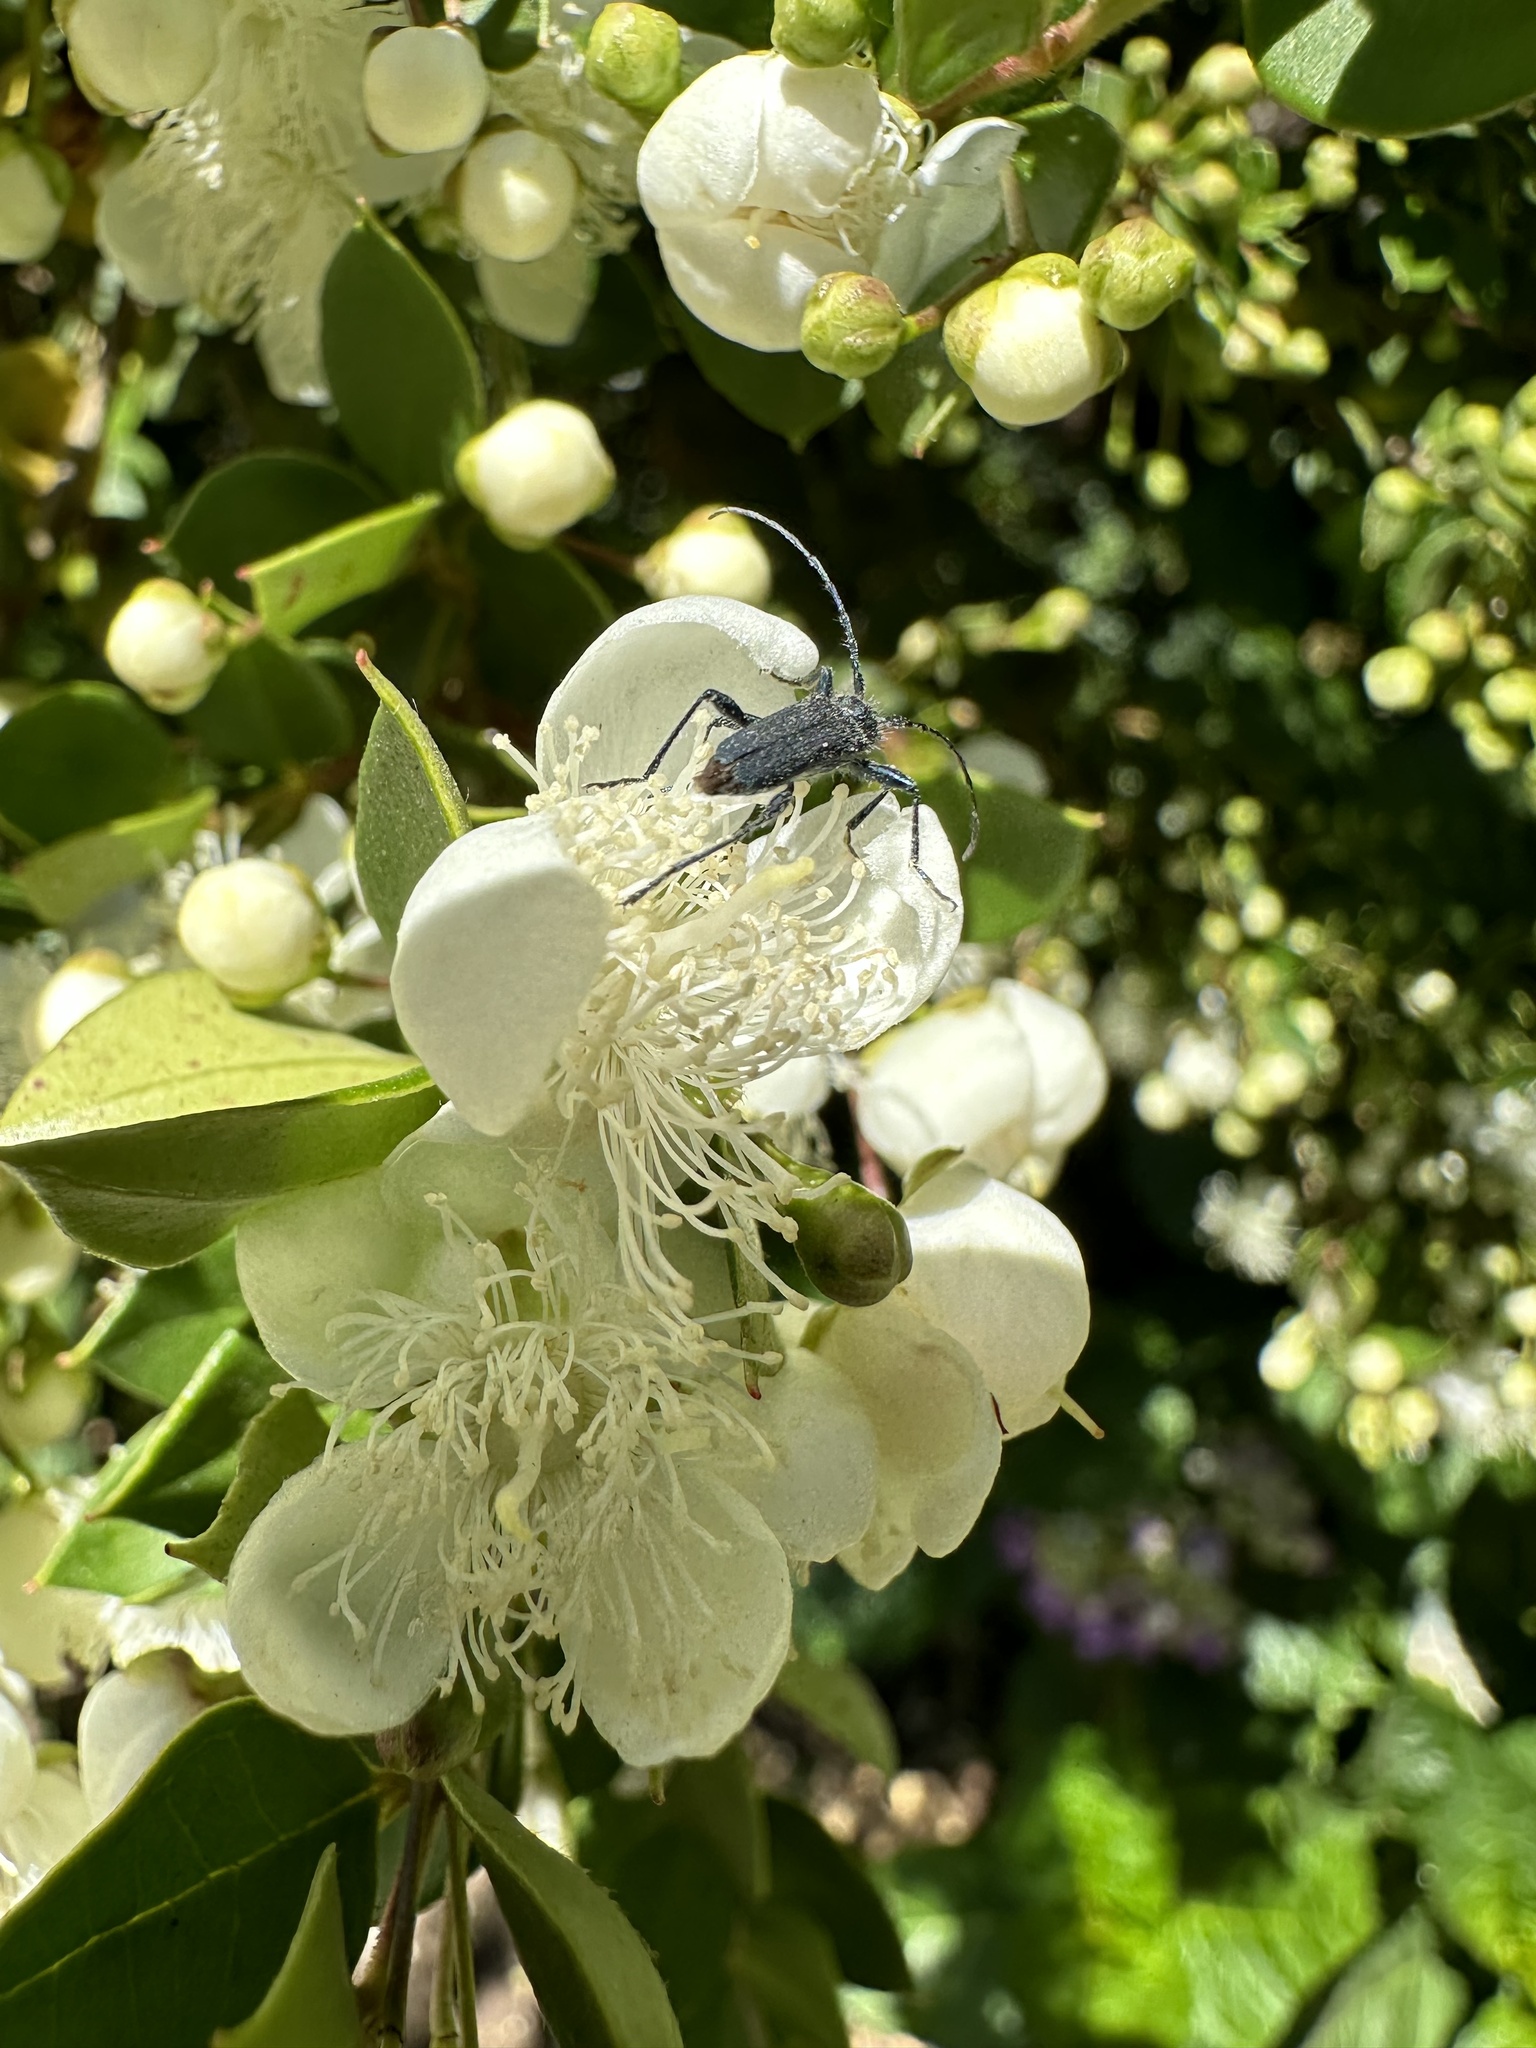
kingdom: Animalia
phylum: Arthropoda
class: Insecta
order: Coleoptera
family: Cerambycidae
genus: Eryphus
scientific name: Eryphus laetus
